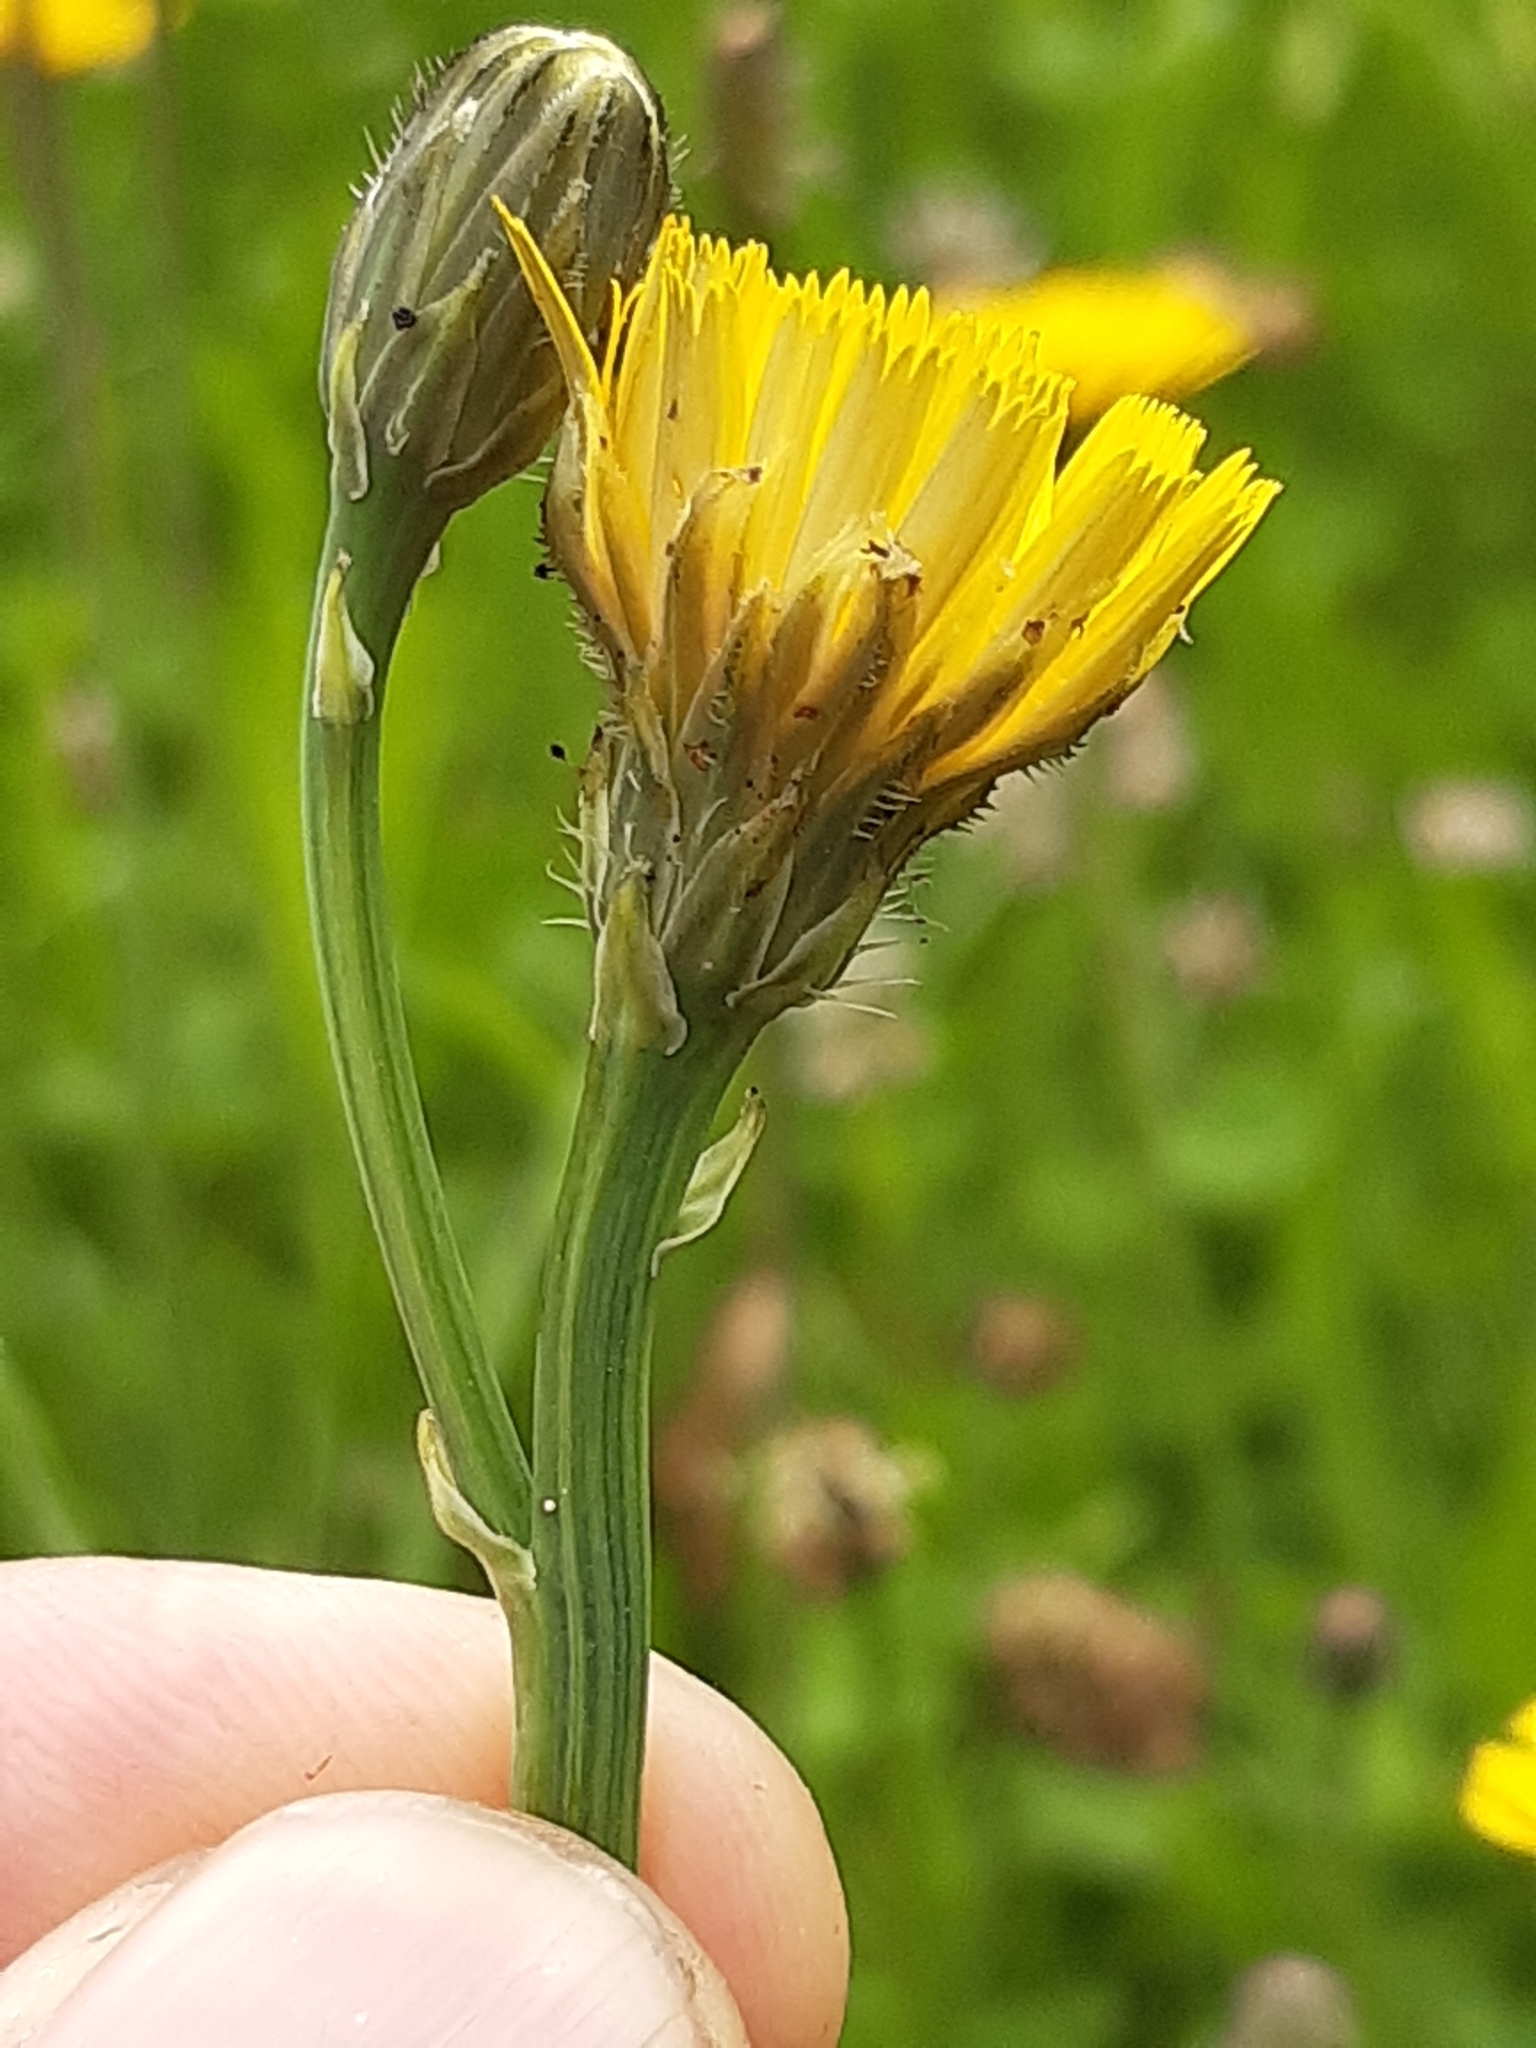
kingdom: Plantae
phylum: Tracheophyta
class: Magnoliopsida
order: Asterales
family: Asteraceae
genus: Hypochaeris
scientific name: Hypochaeris radicata
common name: Flatweed
